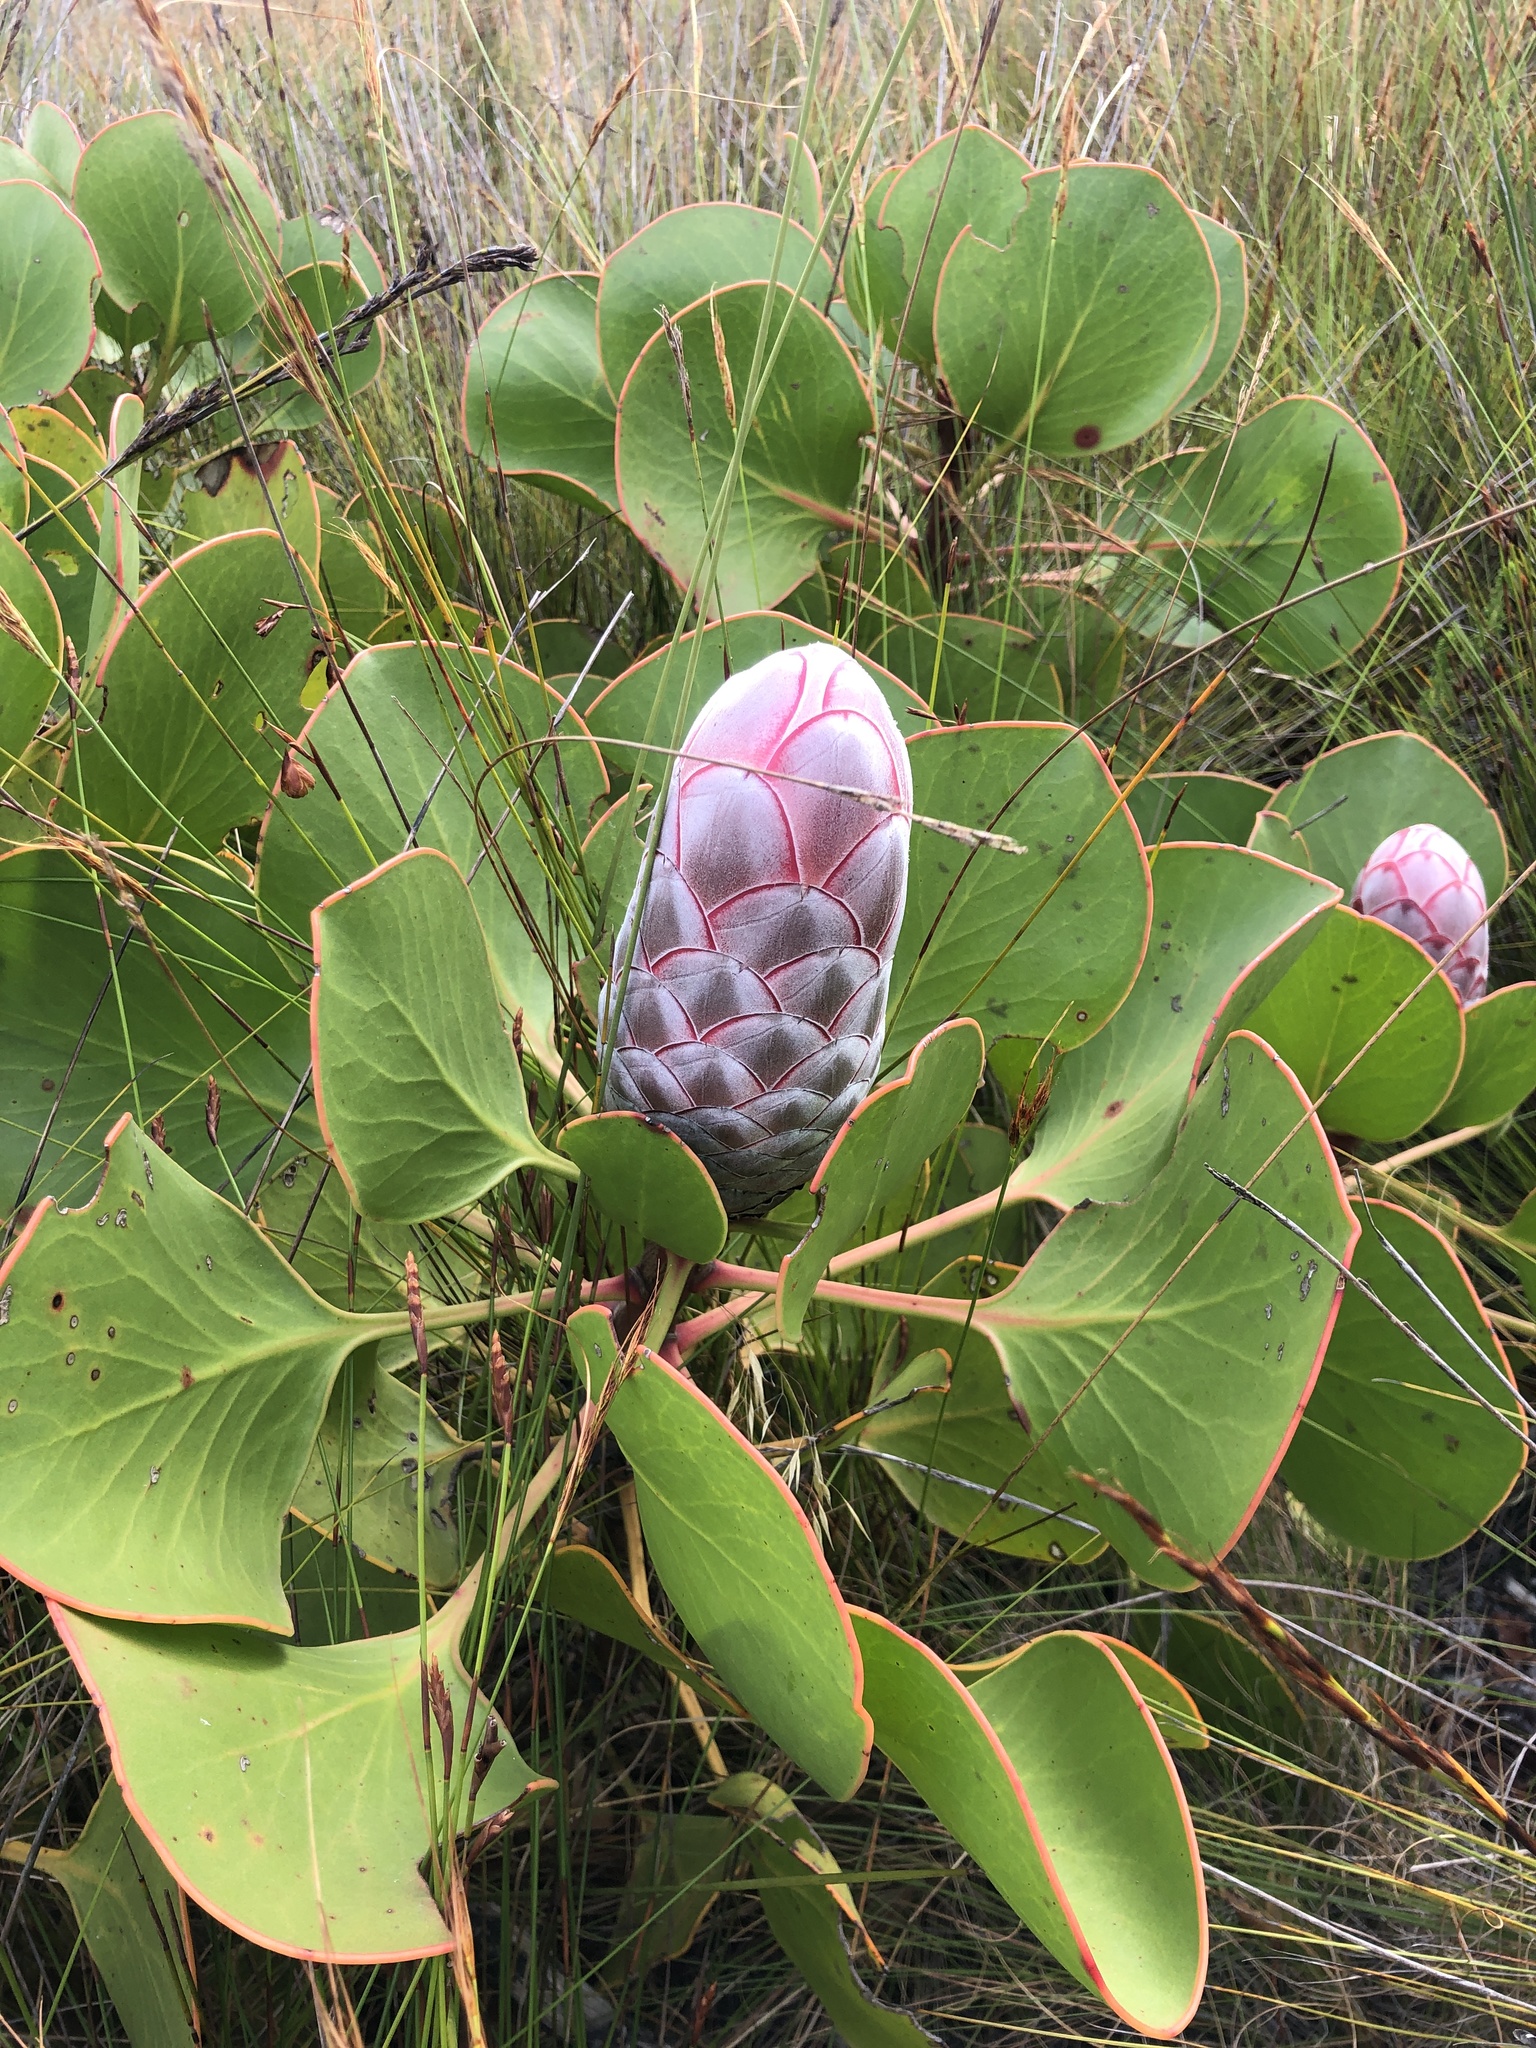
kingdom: Plantae
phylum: Tracheophyta
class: Magnoliopsida
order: Proteales
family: Proteaceae
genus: Protea
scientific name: Protea cynaroides
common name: King protea
